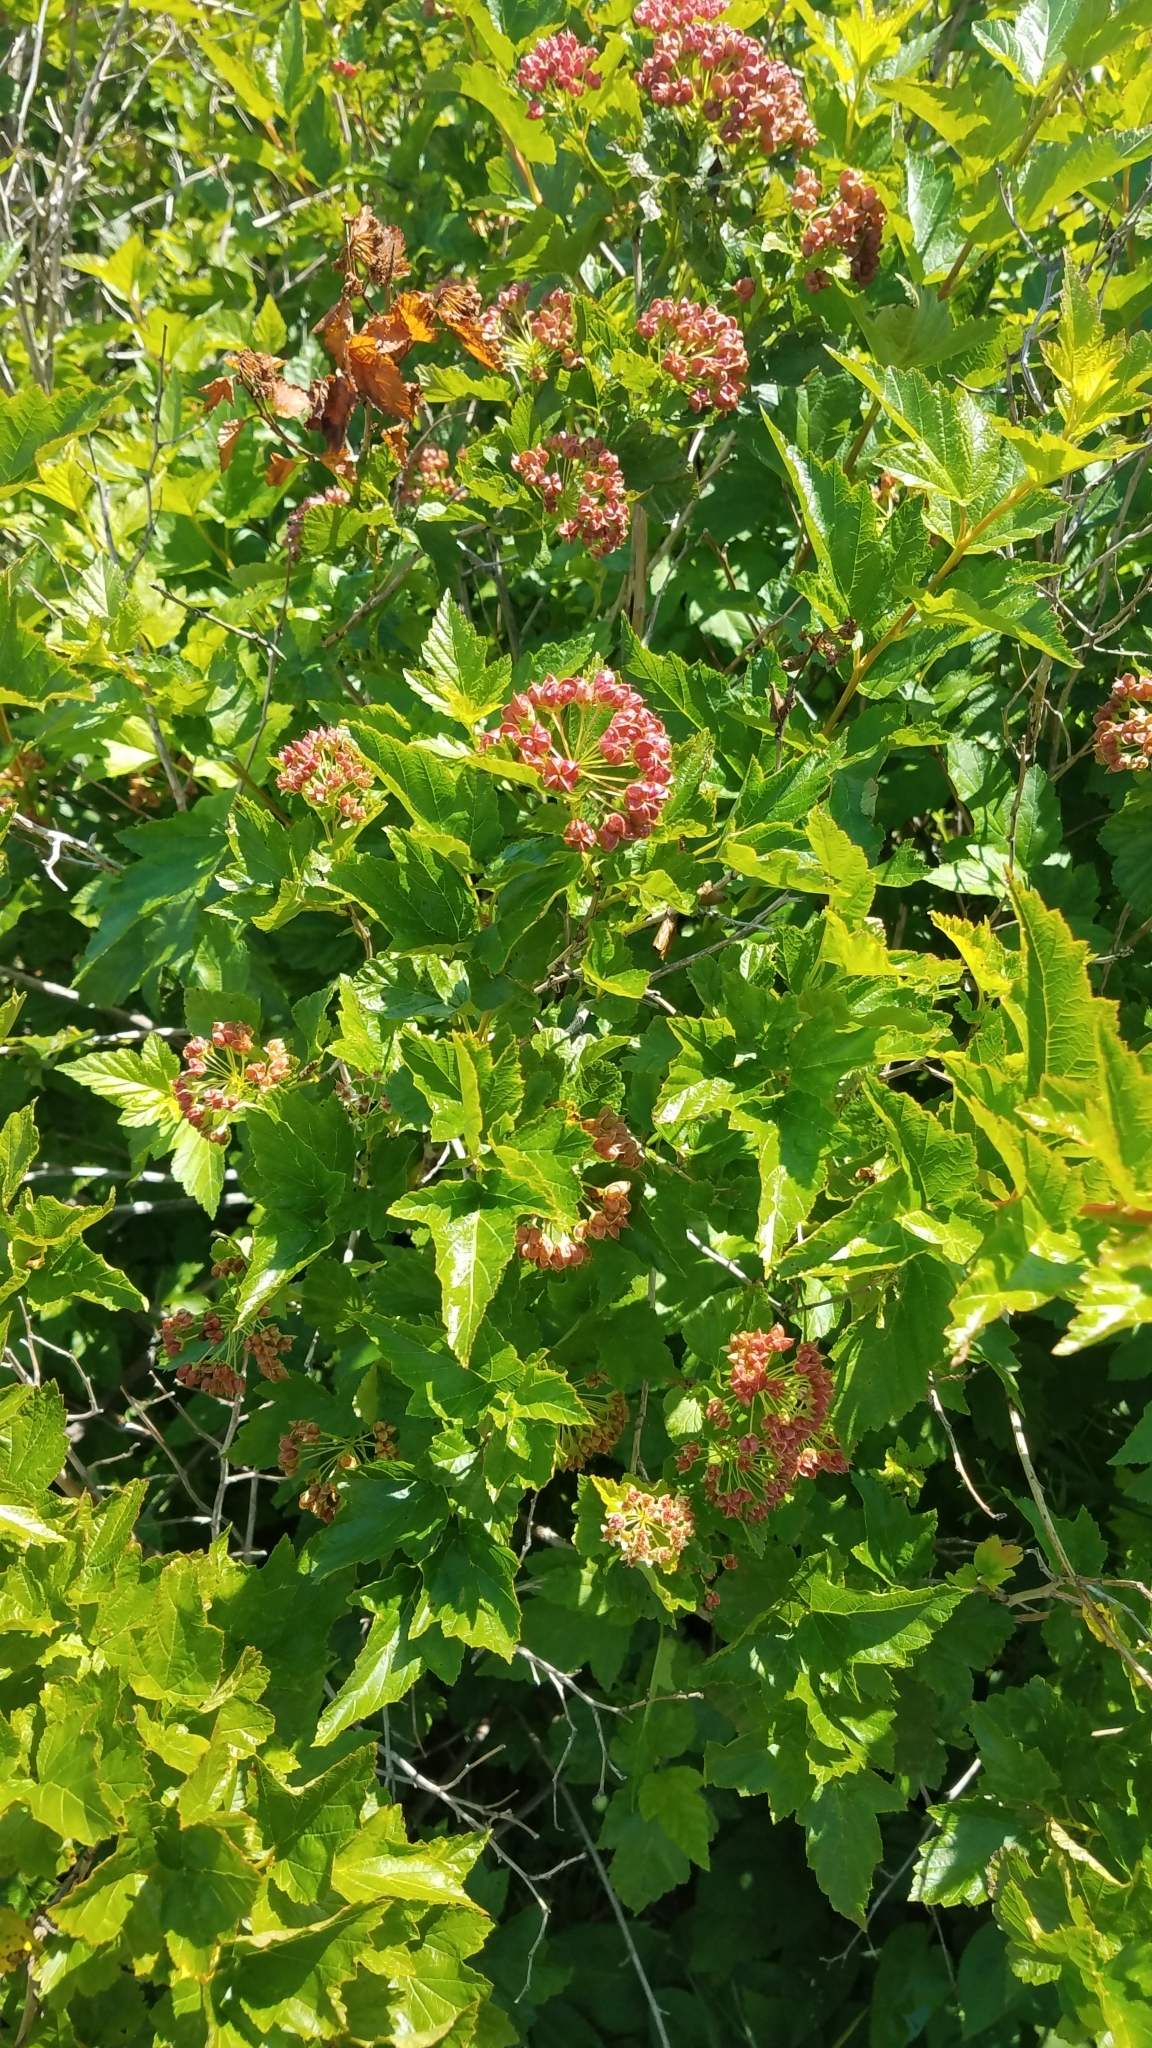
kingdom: Plantae
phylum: Tracheophyta
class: Magnoliopsida
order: Rosales
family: Rosaceae
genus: Physocarpus
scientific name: Physocarpus opulifolius
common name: Ninebark
